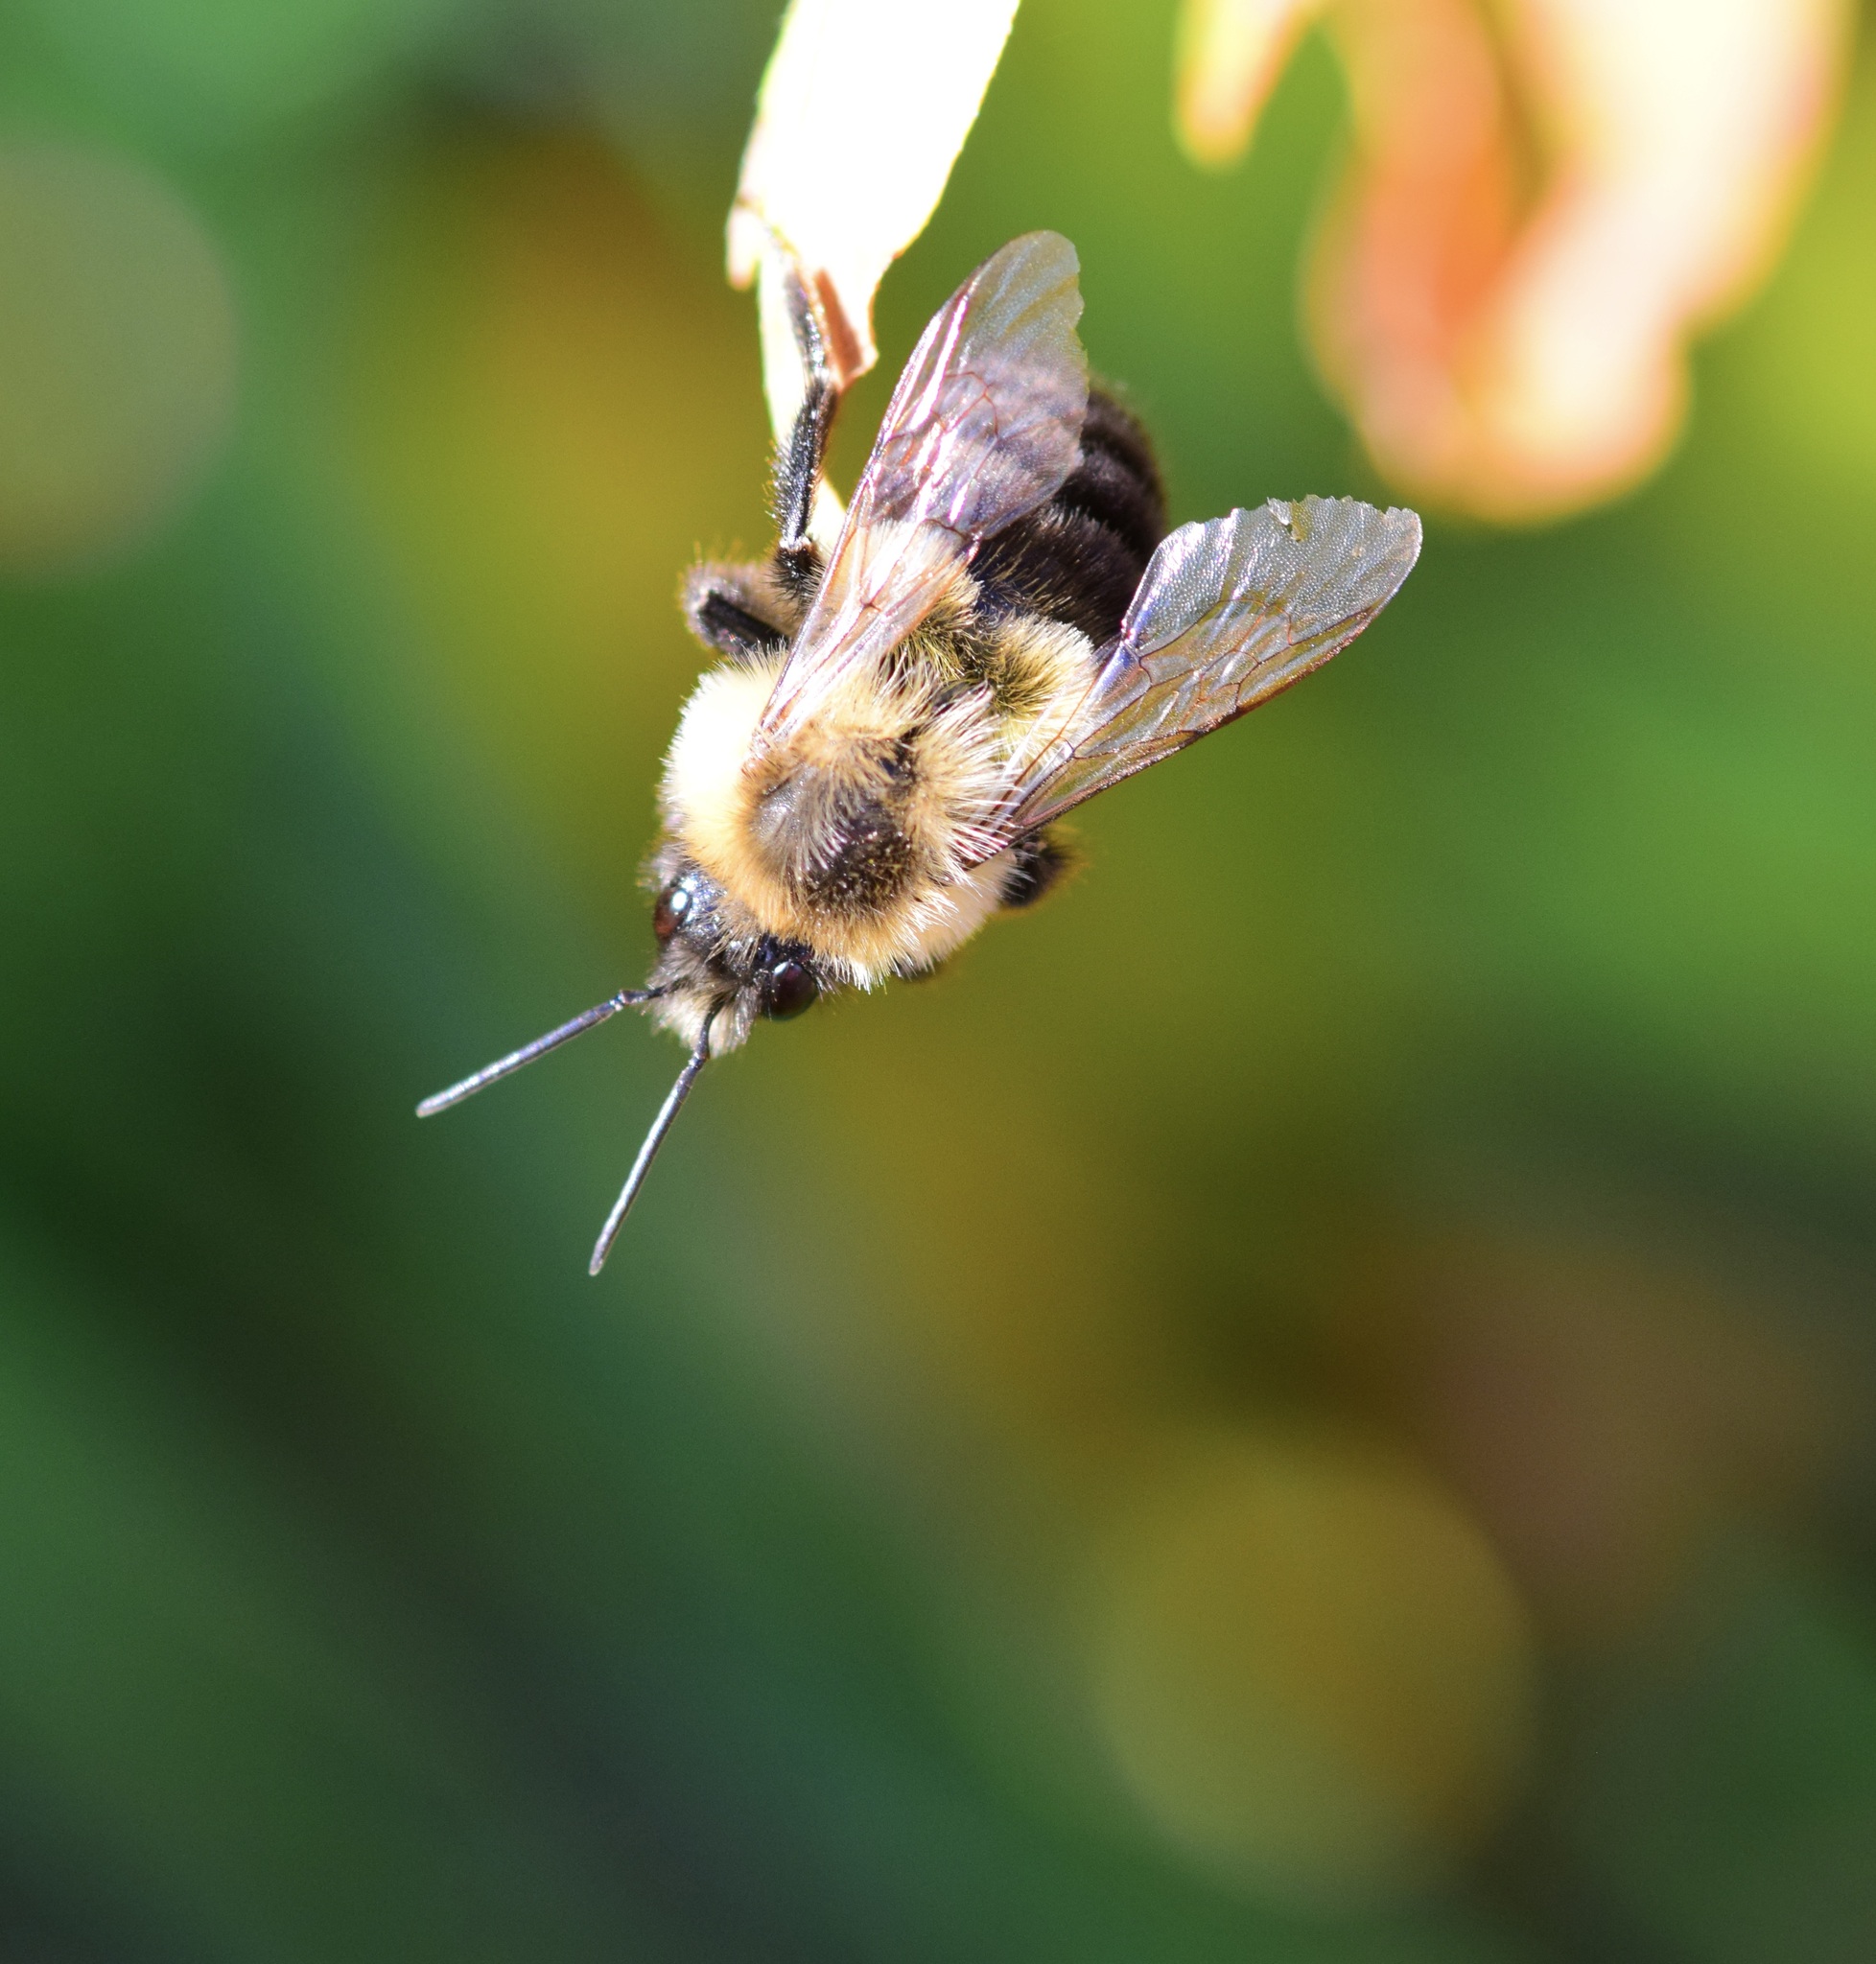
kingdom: Animalia
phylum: Arthropoda
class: Insecta
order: Hymenoptera
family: Apidae
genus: Bombus
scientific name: Bombus impatiens
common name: Common eastern bumble bee
